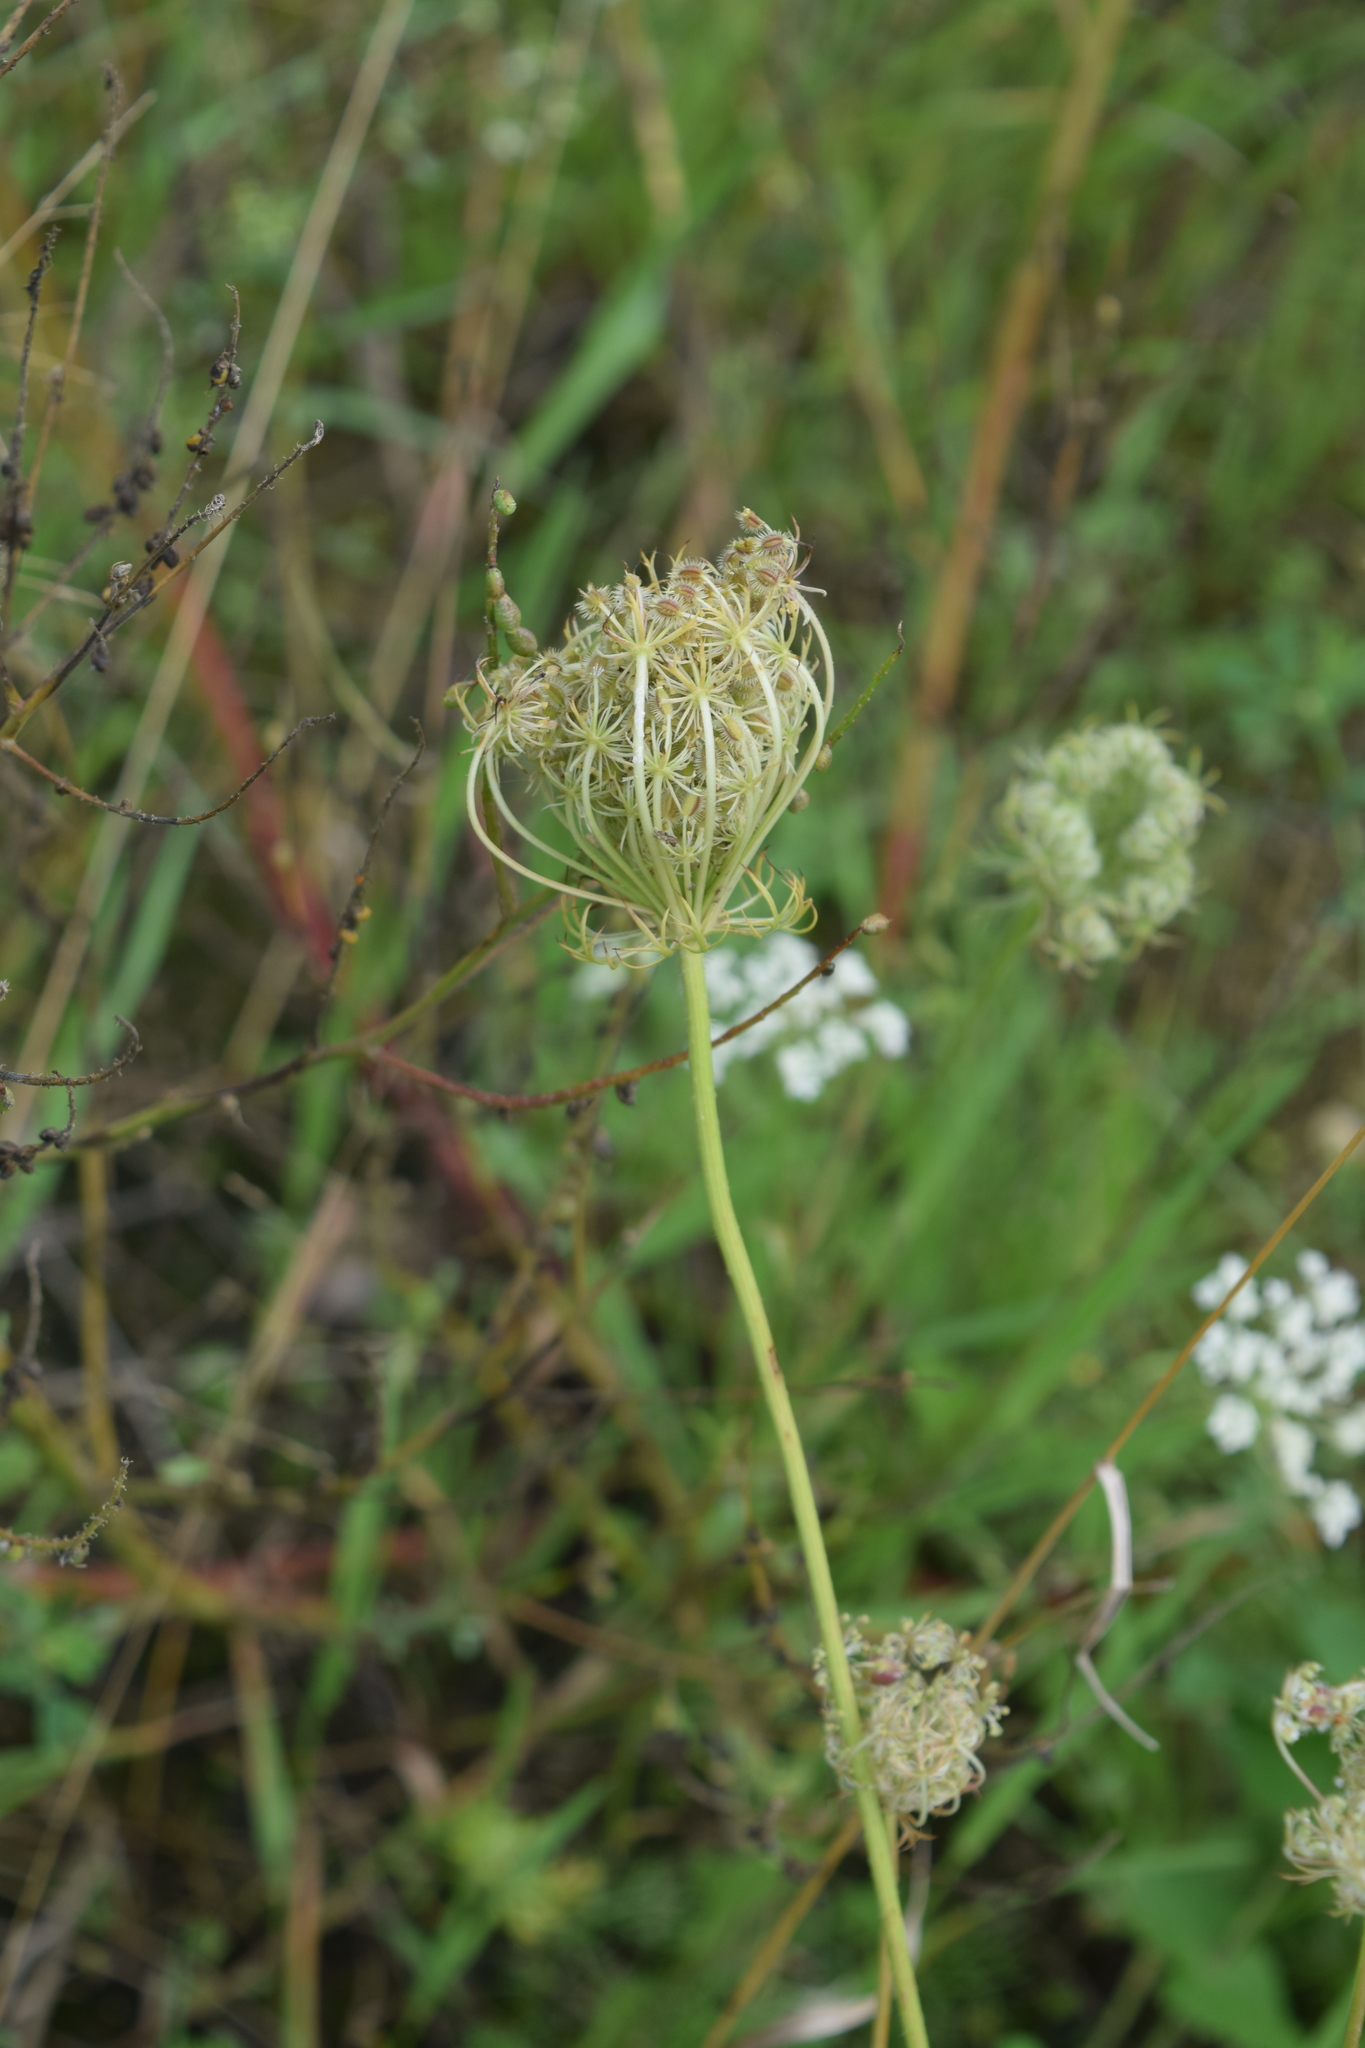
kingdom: Plantae
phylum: Tracheophyta
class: Magnoliopsida
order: Apiales
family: Apiaceae
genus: Daucus
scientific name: Daucus carota
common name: Wild carrot
